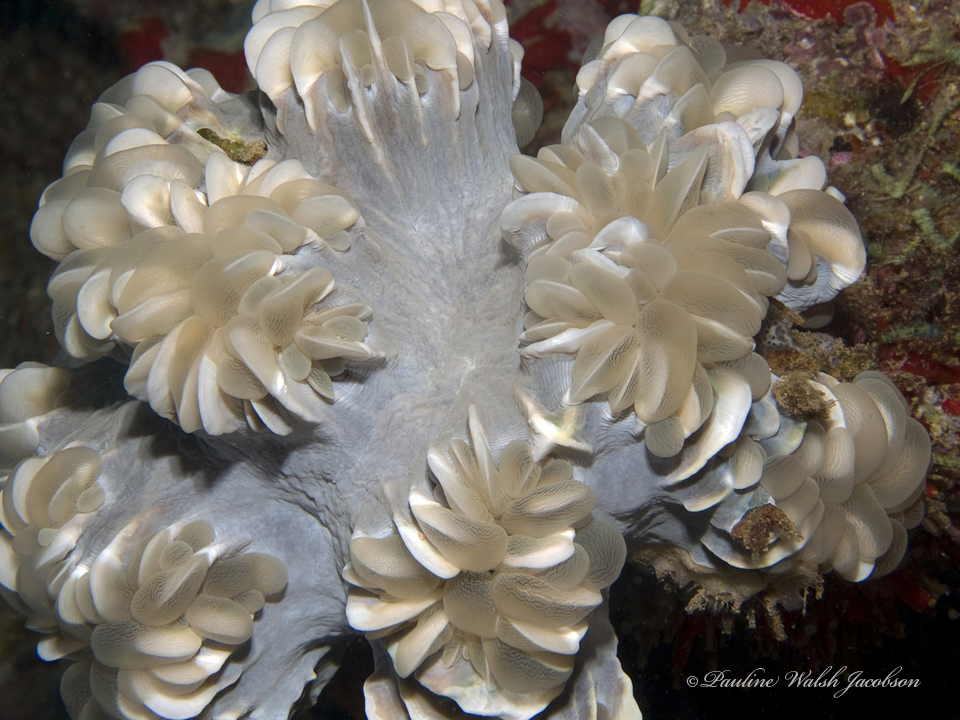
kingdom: Animalia
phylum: Cnidaria
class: Anthozoa
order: Scleractinia
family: Plerogyridae
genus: Plerogyra
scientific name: Plerogyra simplex
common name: Rounded bubblegum coral
